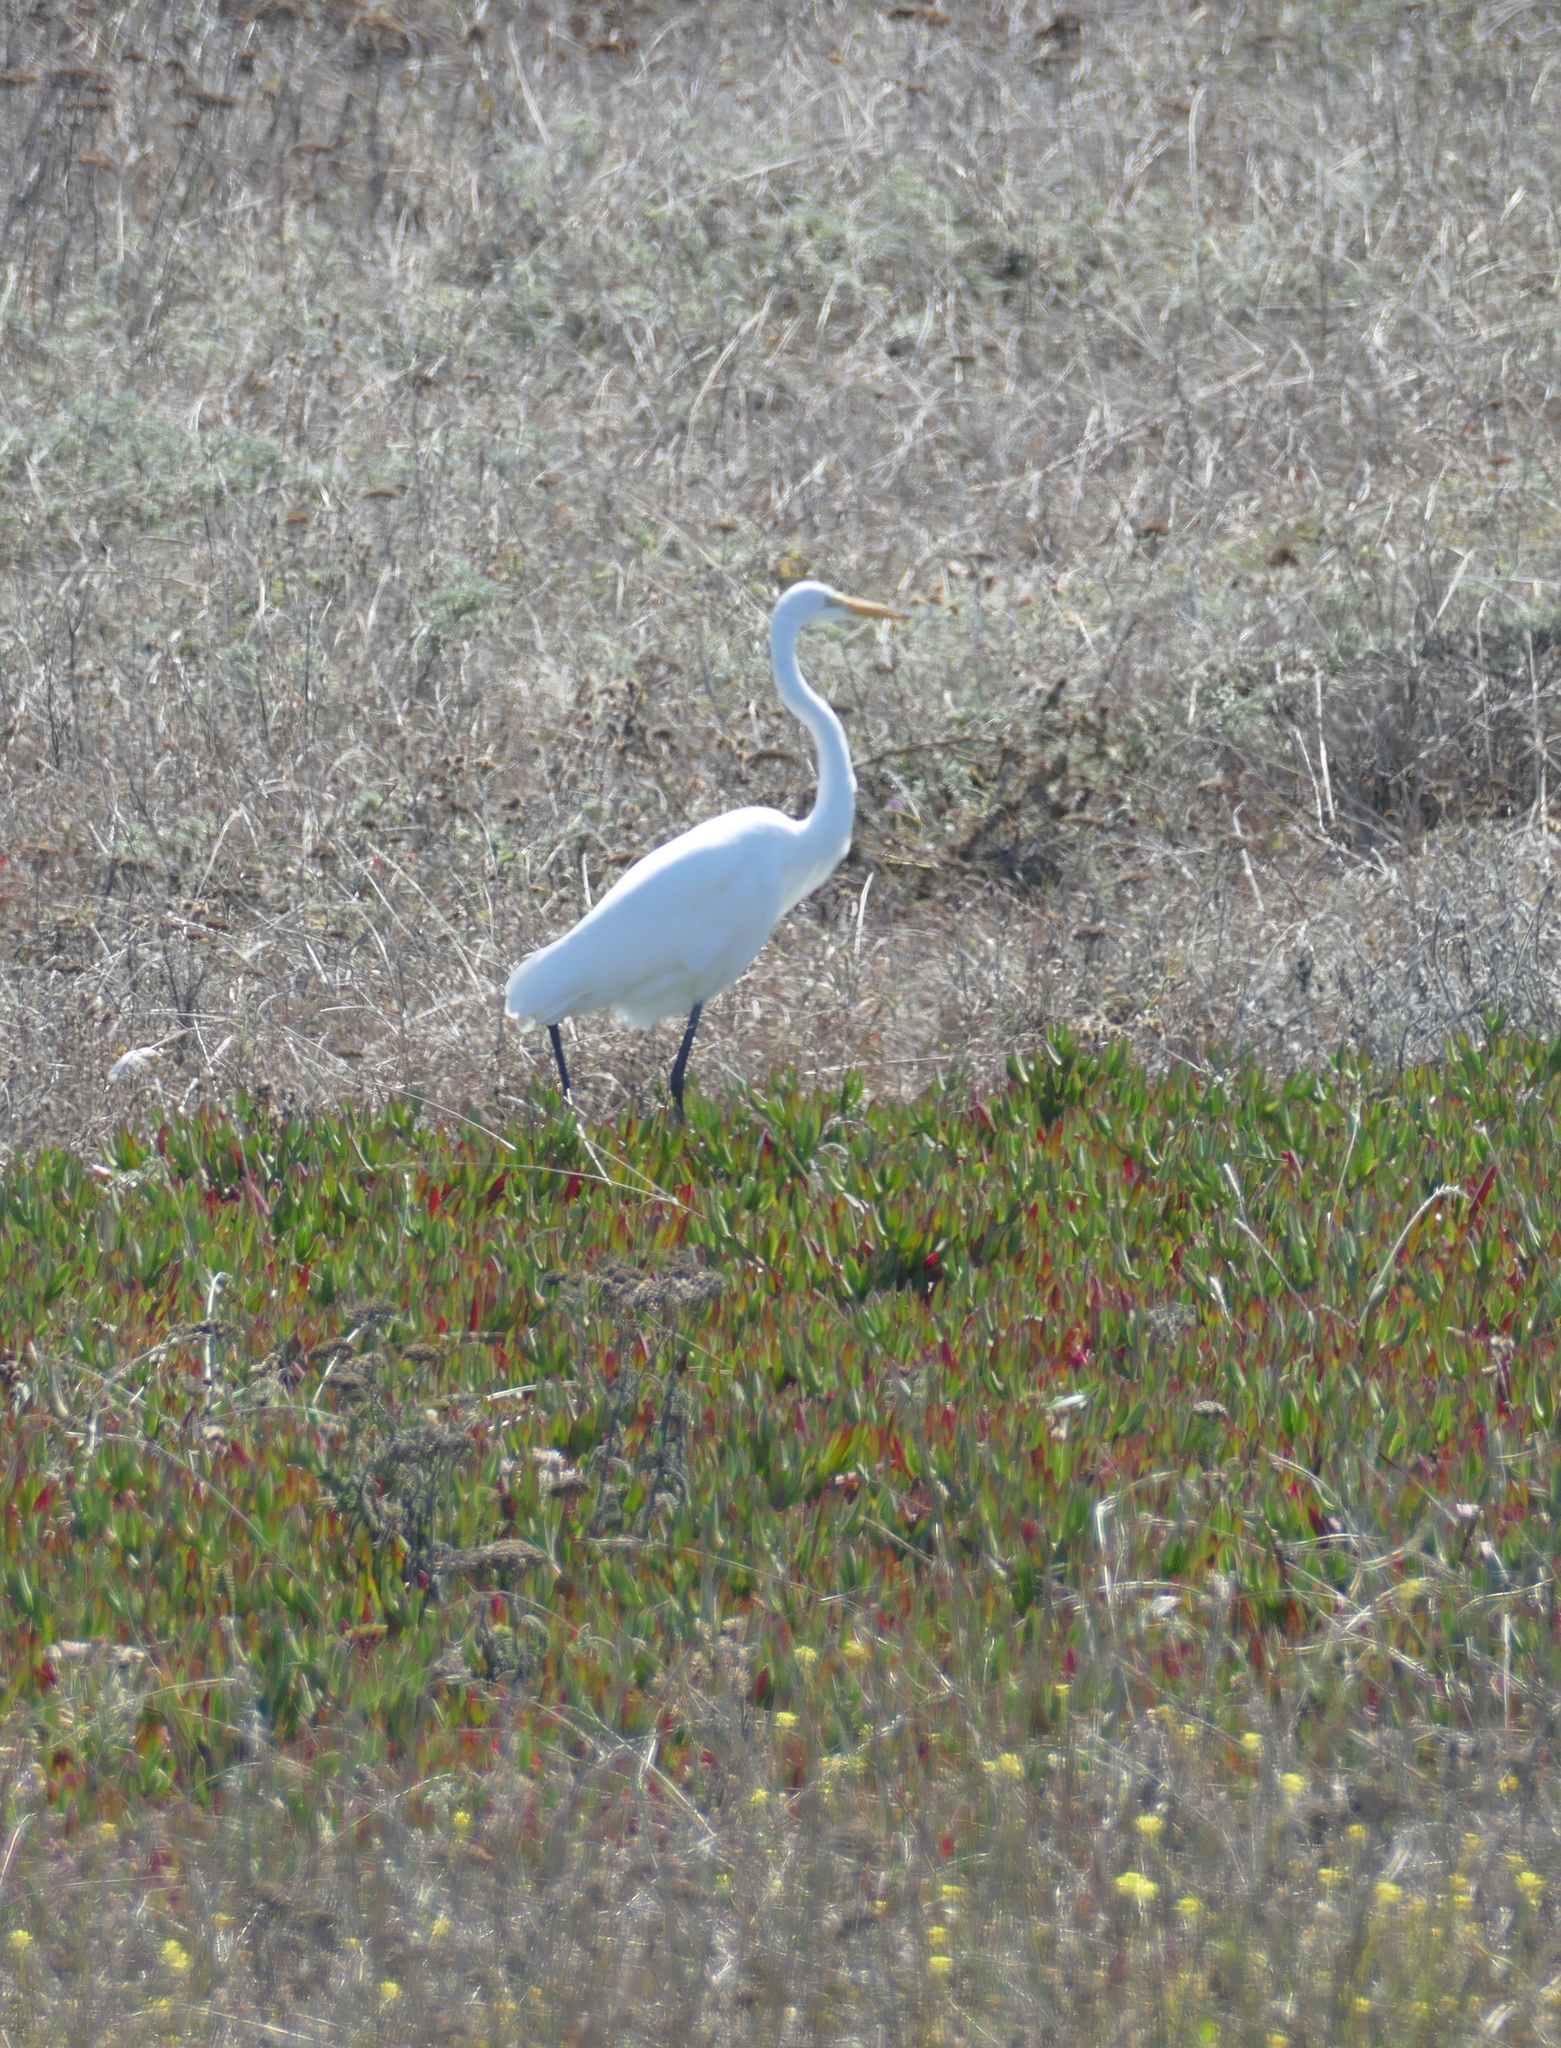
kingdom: Animalia
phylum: Chordata
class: Aves
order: Pelecaniformes
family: Ardeidae
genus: Ardea
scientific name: Ardea alba
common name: Great egret
